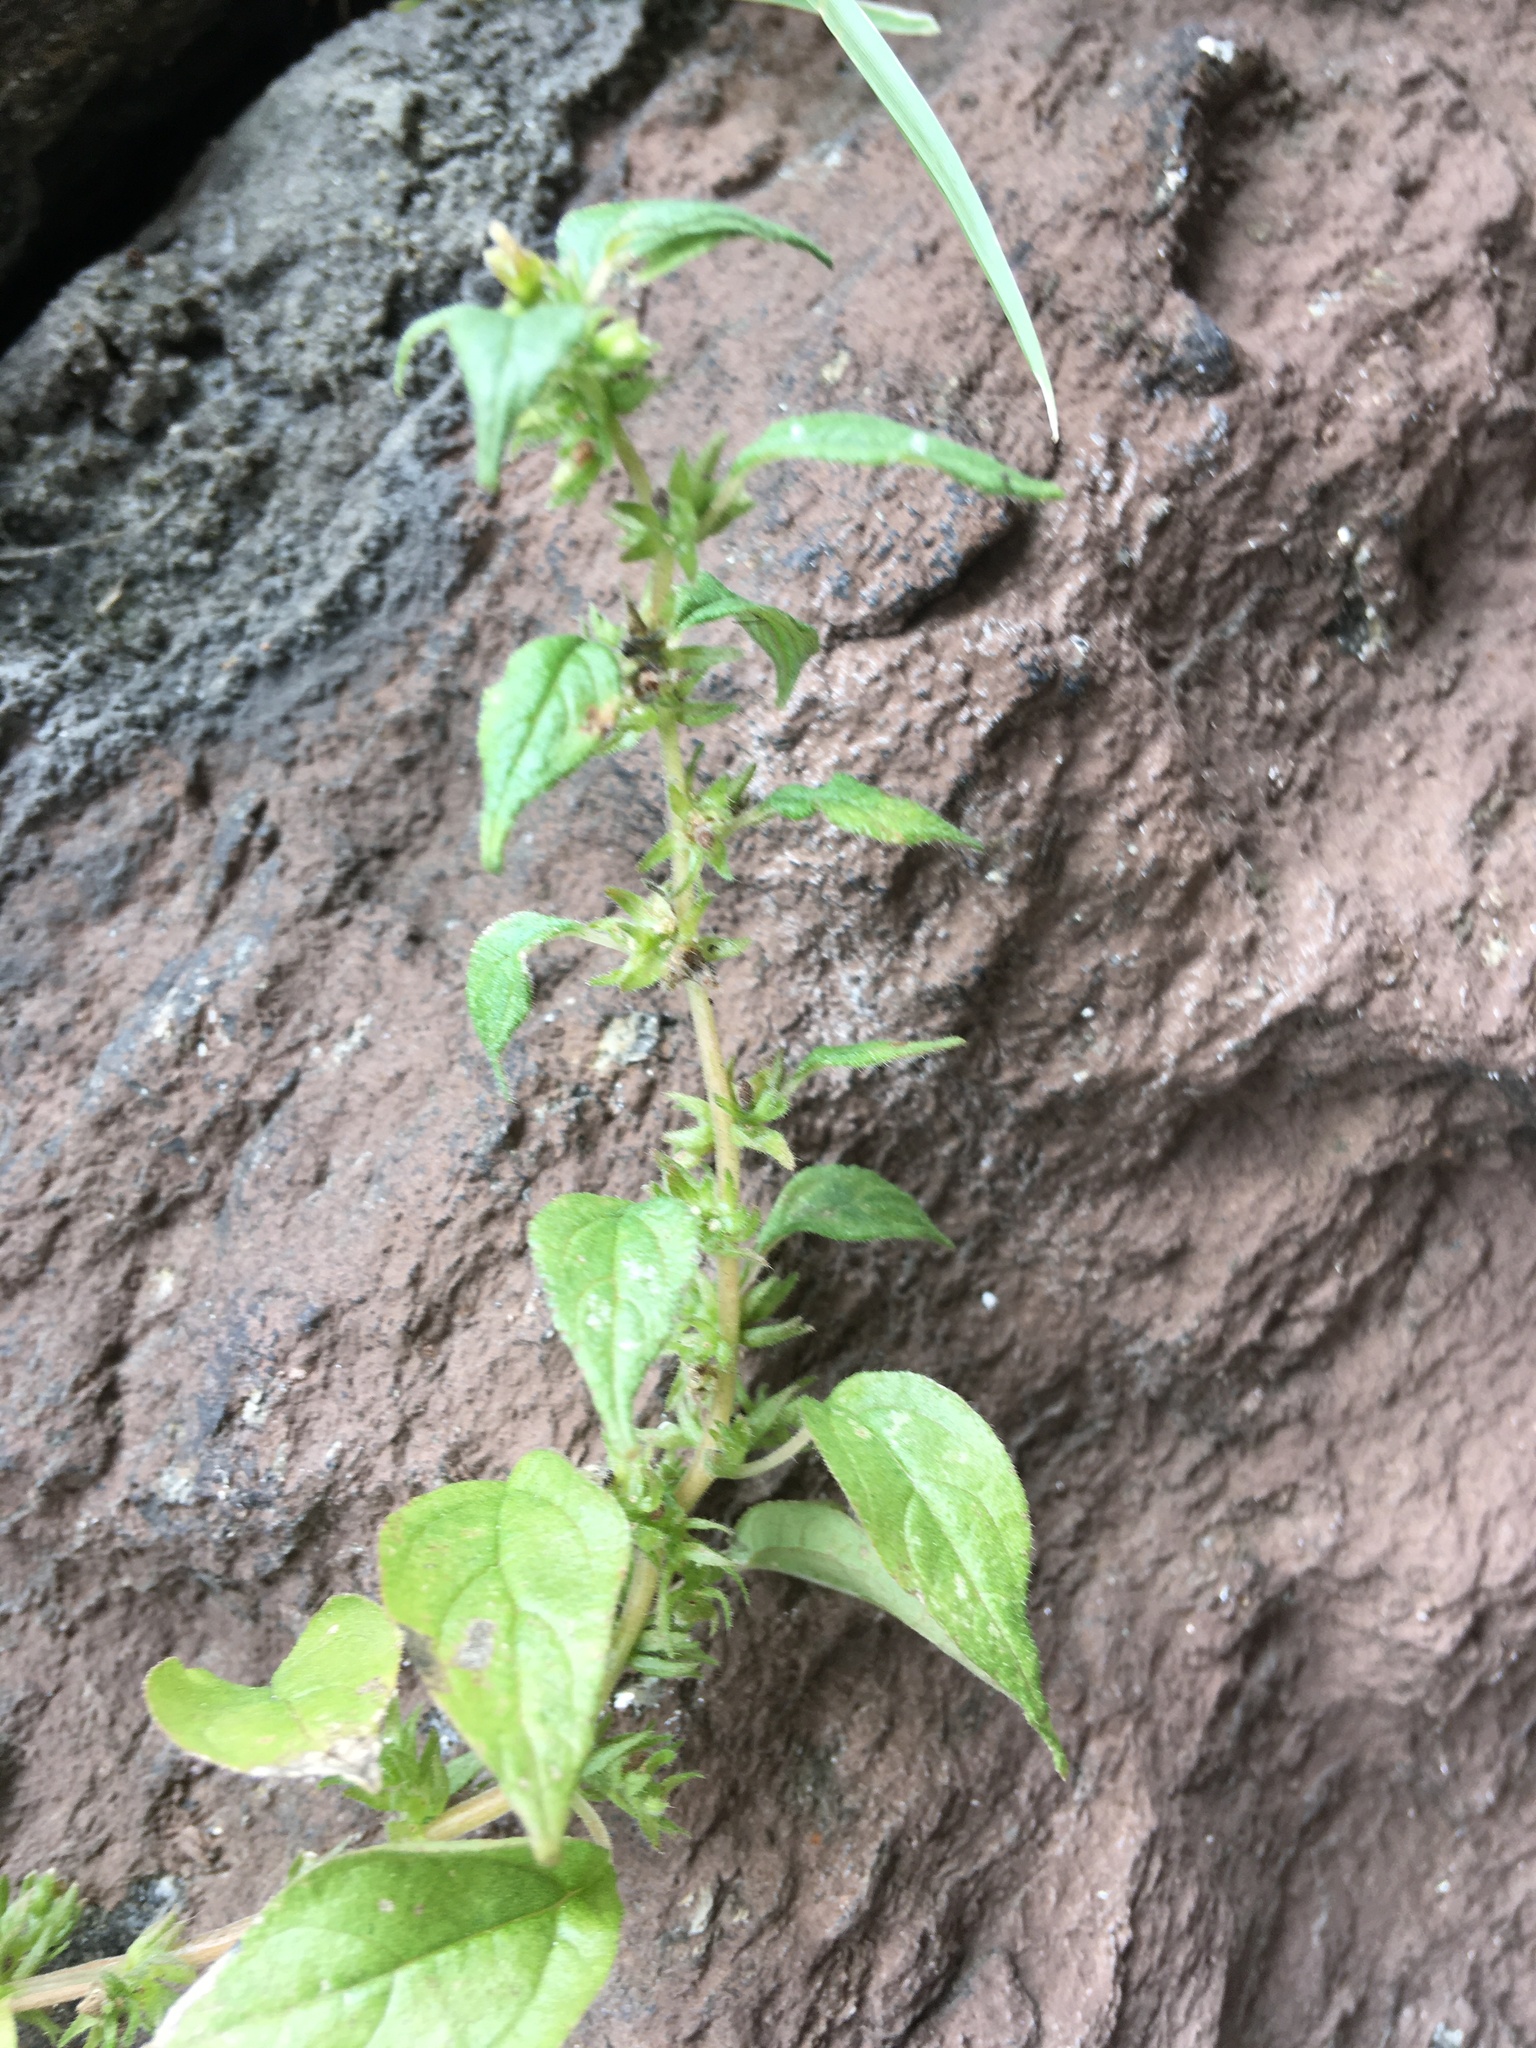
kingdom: Plantae
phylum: Tracheophyta
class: Magnoliopsida
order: Rosales
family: Urticaceae
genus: Parietaria
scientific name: Parietaria pensylvanica
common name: Pennsylvania pellitory
